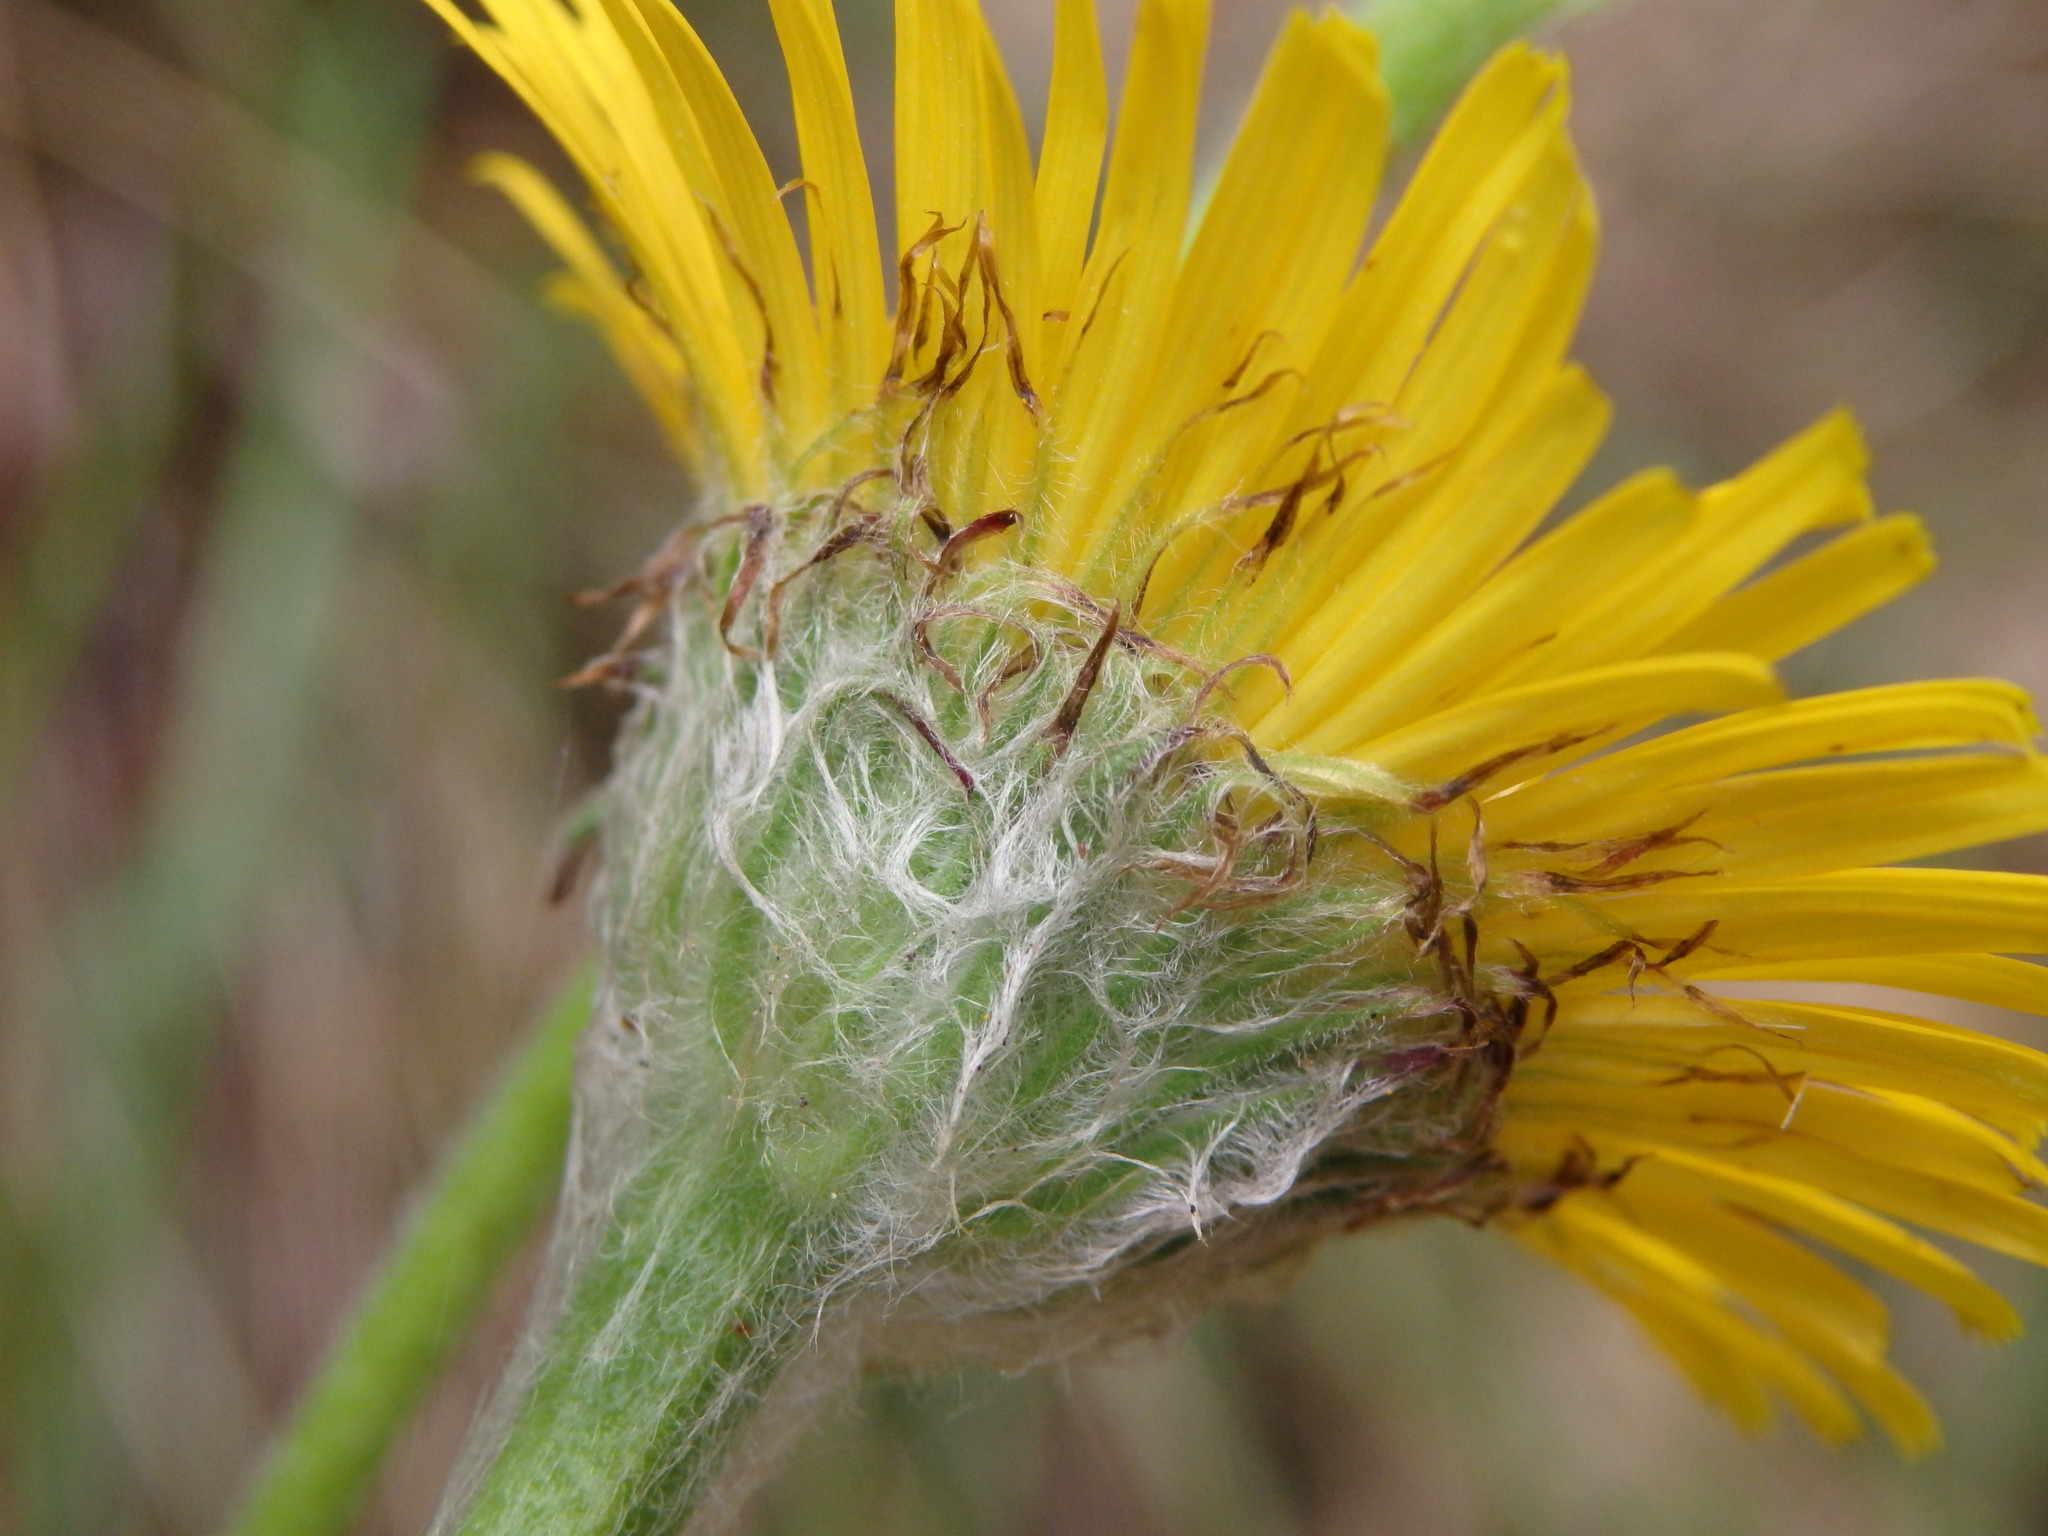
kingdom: Plantae
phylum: Tracheophyta
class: Magnoliopsida
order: Asterales
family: Asteraceae
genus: Pulicaria
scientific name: Pulicaria odora
